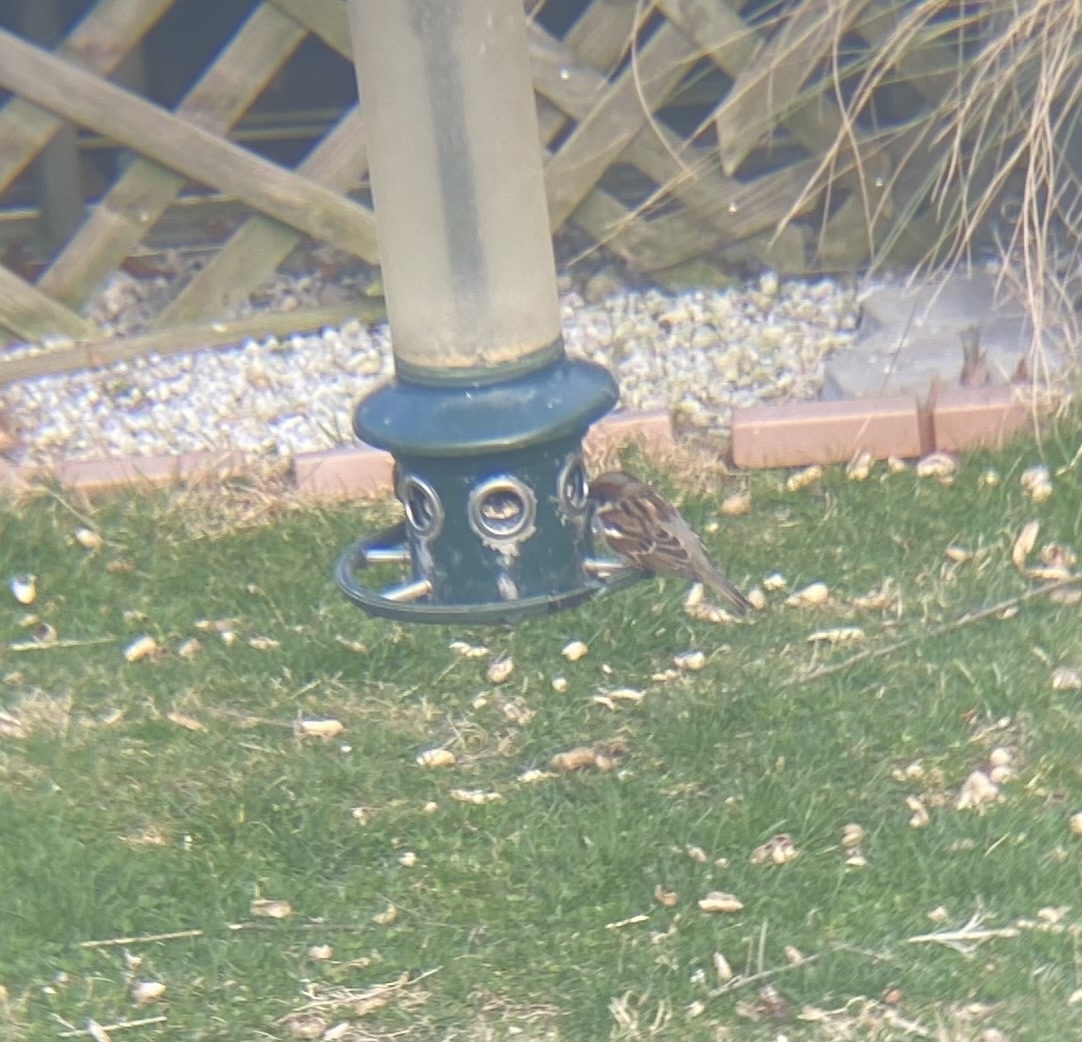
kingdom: Animalia
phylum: Chordata
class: Aves
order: Passeriformes
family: Passeridae
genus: Passer
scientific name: Passer domesticus
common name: House sparrow
